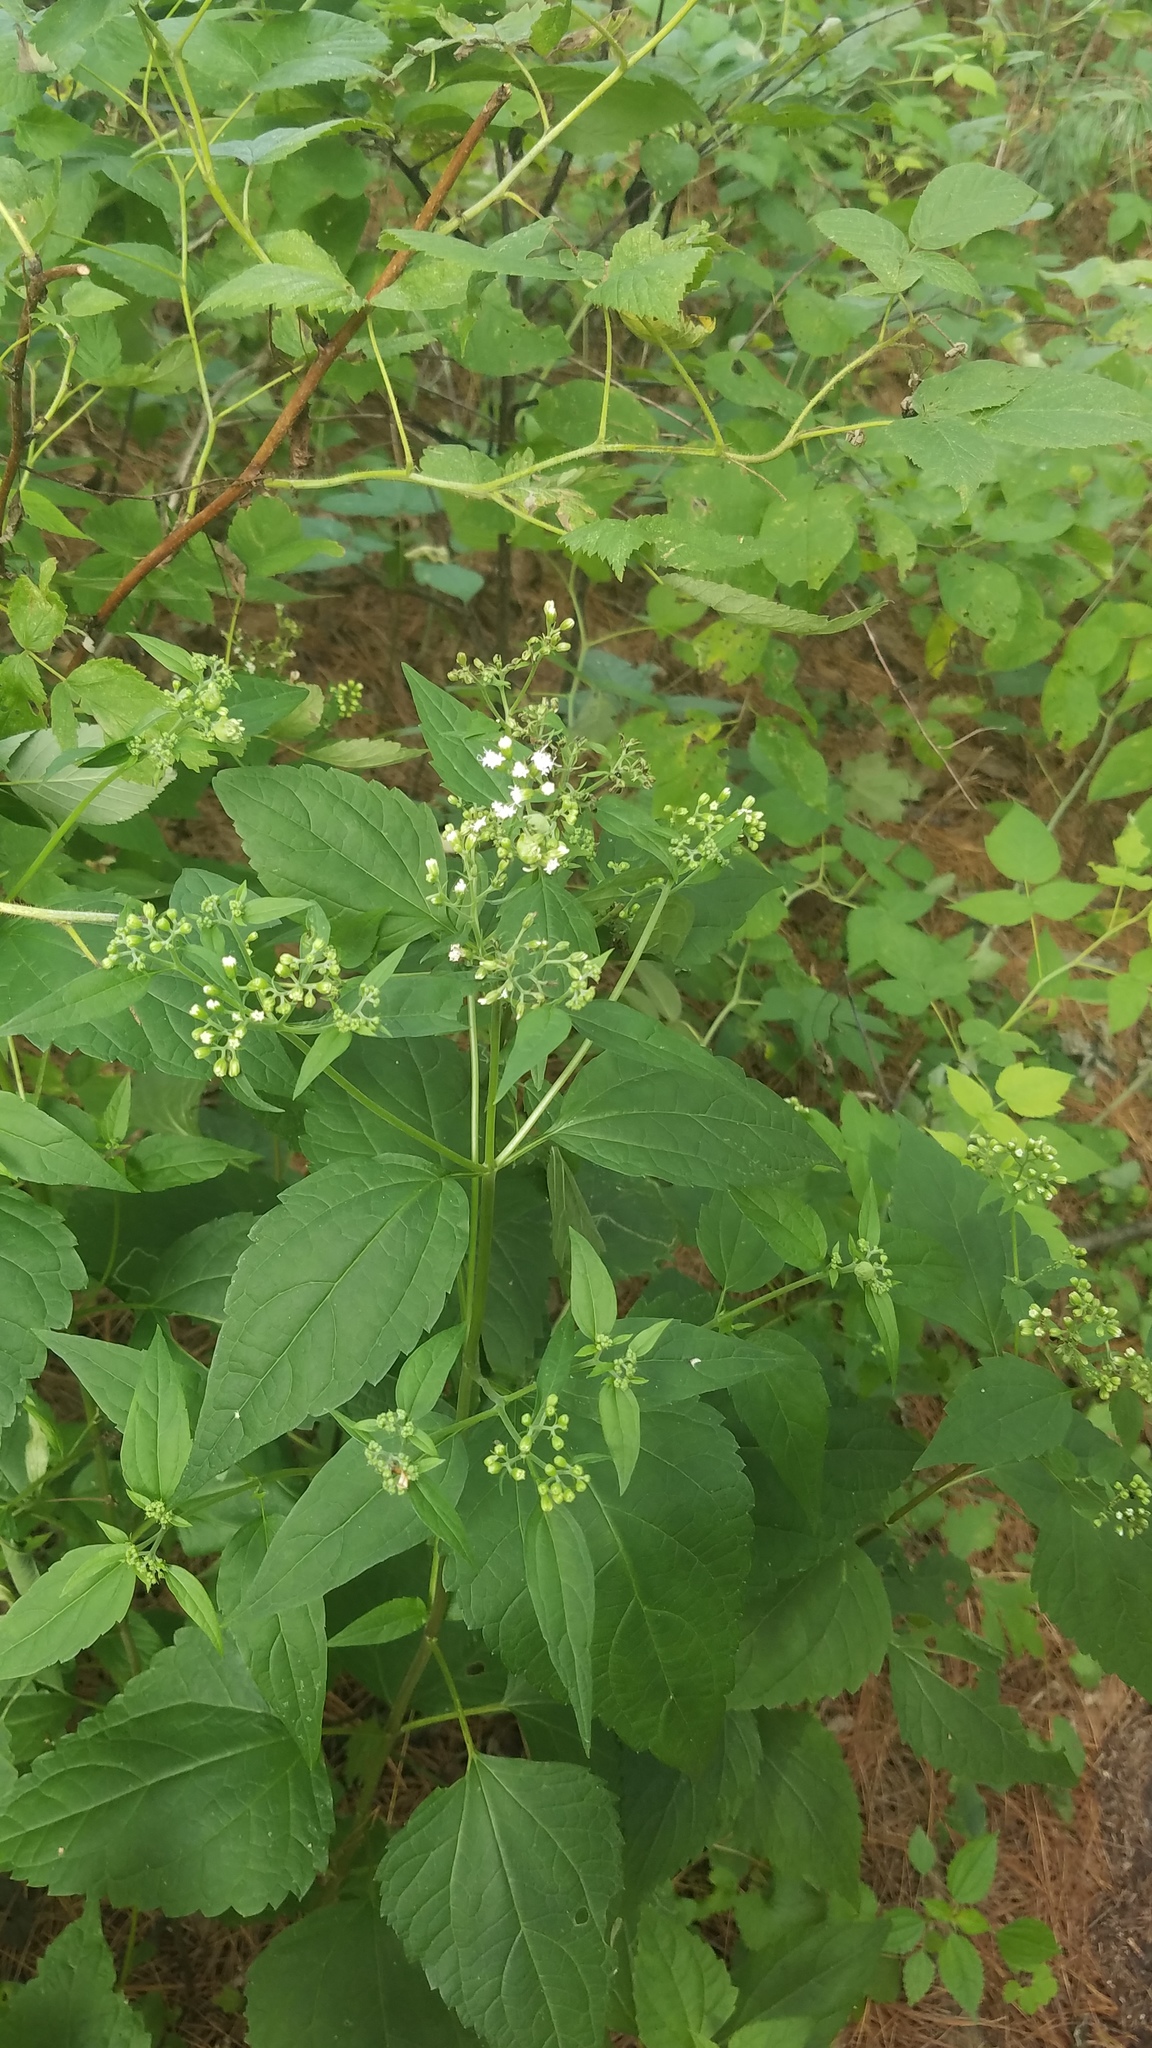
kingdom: Plantae
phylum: Tracheophyta
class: Magnoliopsida
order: Asterales
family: Asteraceae
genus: Ageratina
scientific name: Ageratina altissima
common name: White snakeroot
